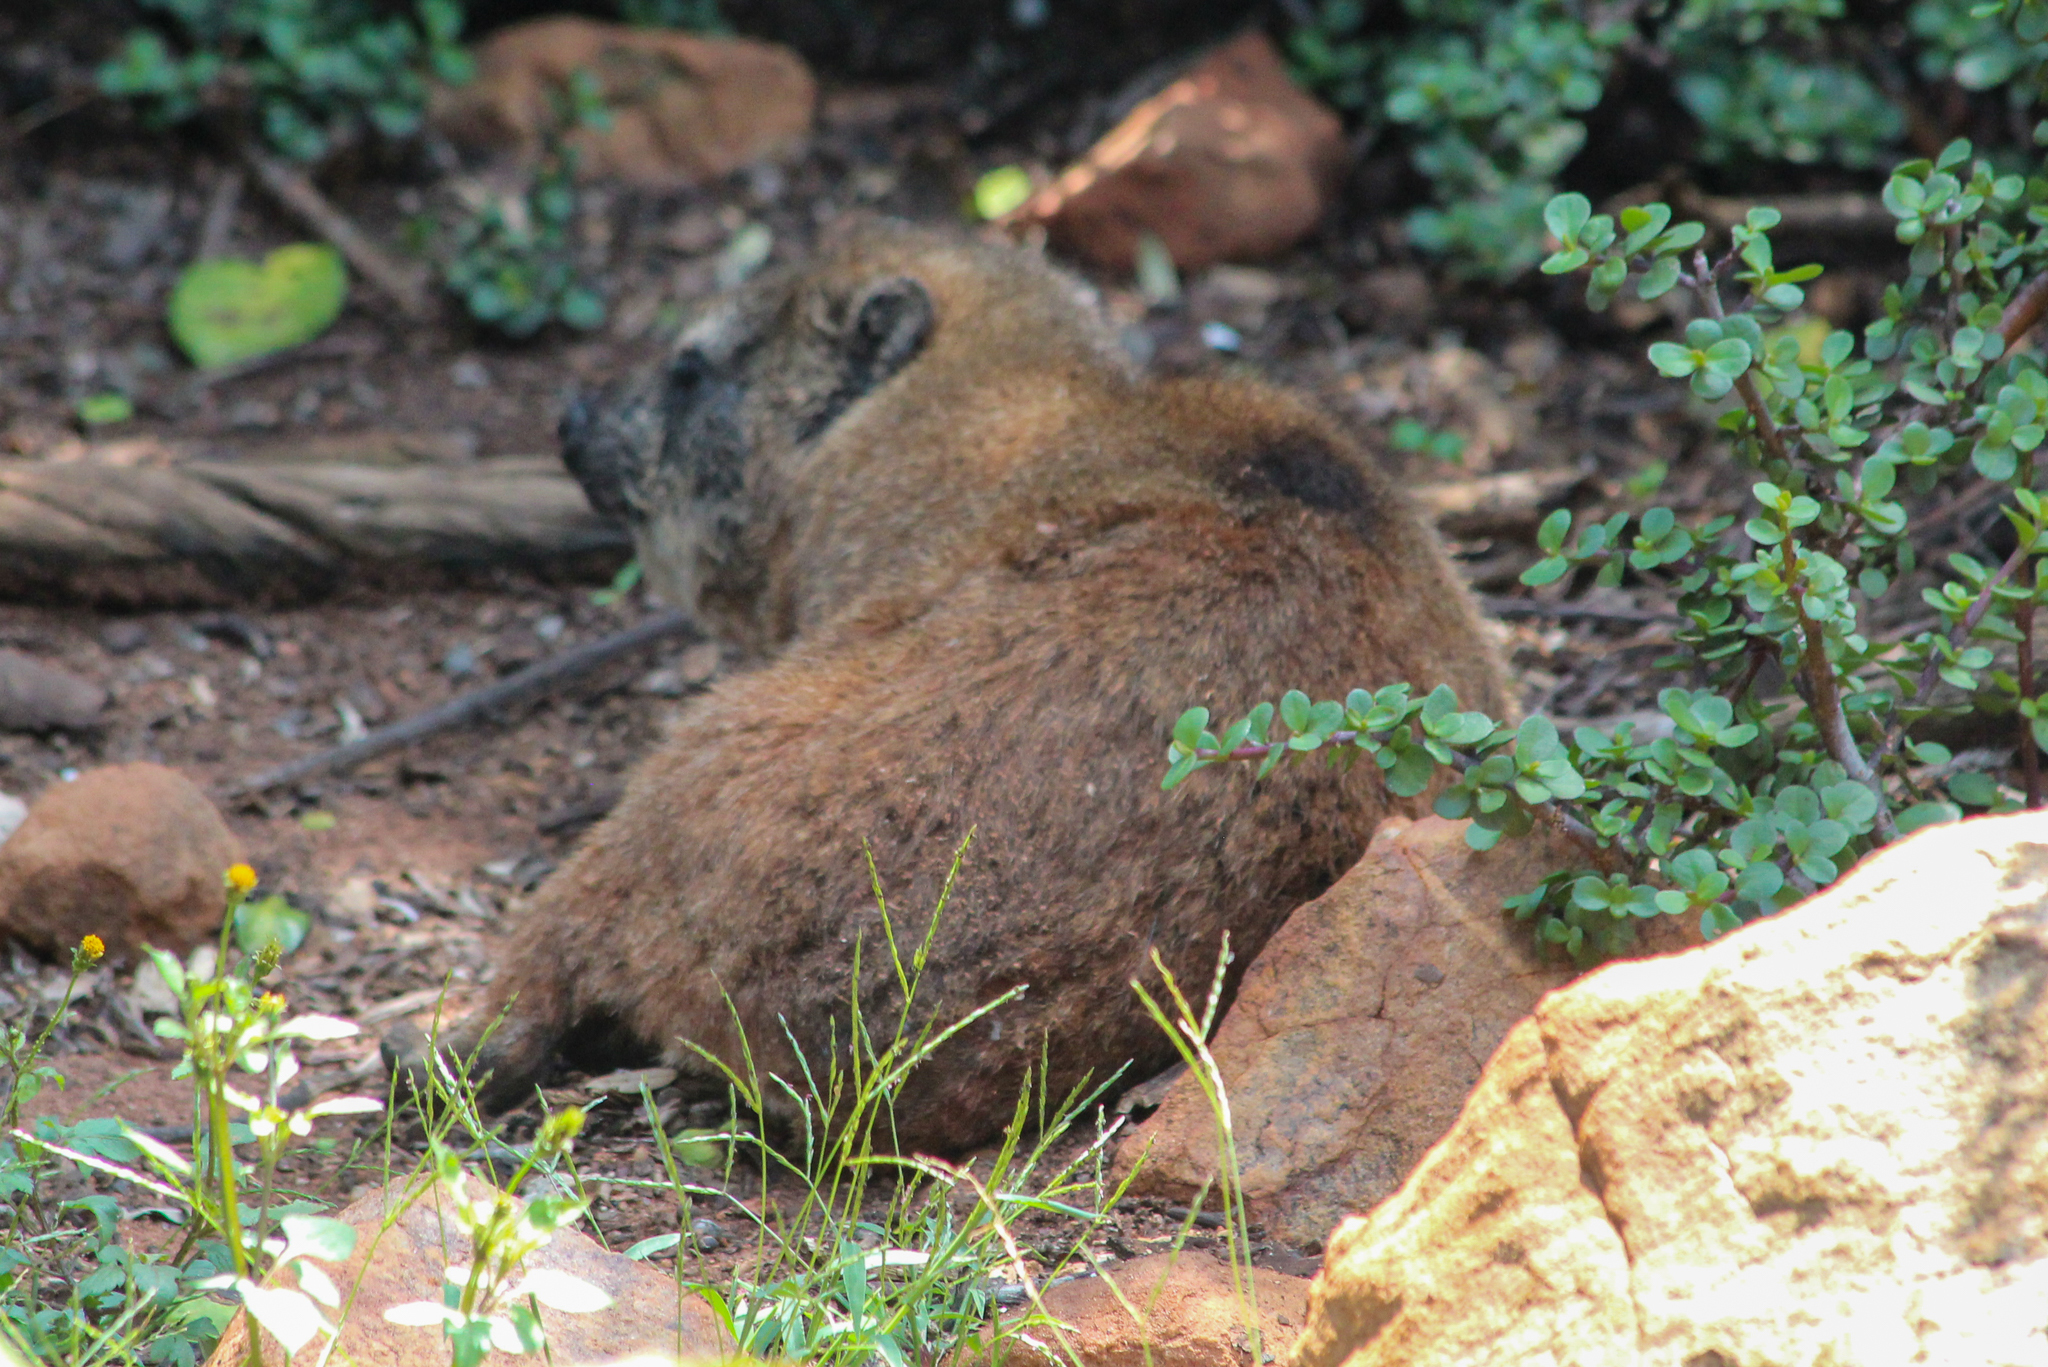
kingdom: Animalia
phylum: Chordata
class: Mammalia
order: Hyracoidea
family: Procaviidae
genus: Procavia
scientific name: Procavia capensis
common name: Rock hyrax
